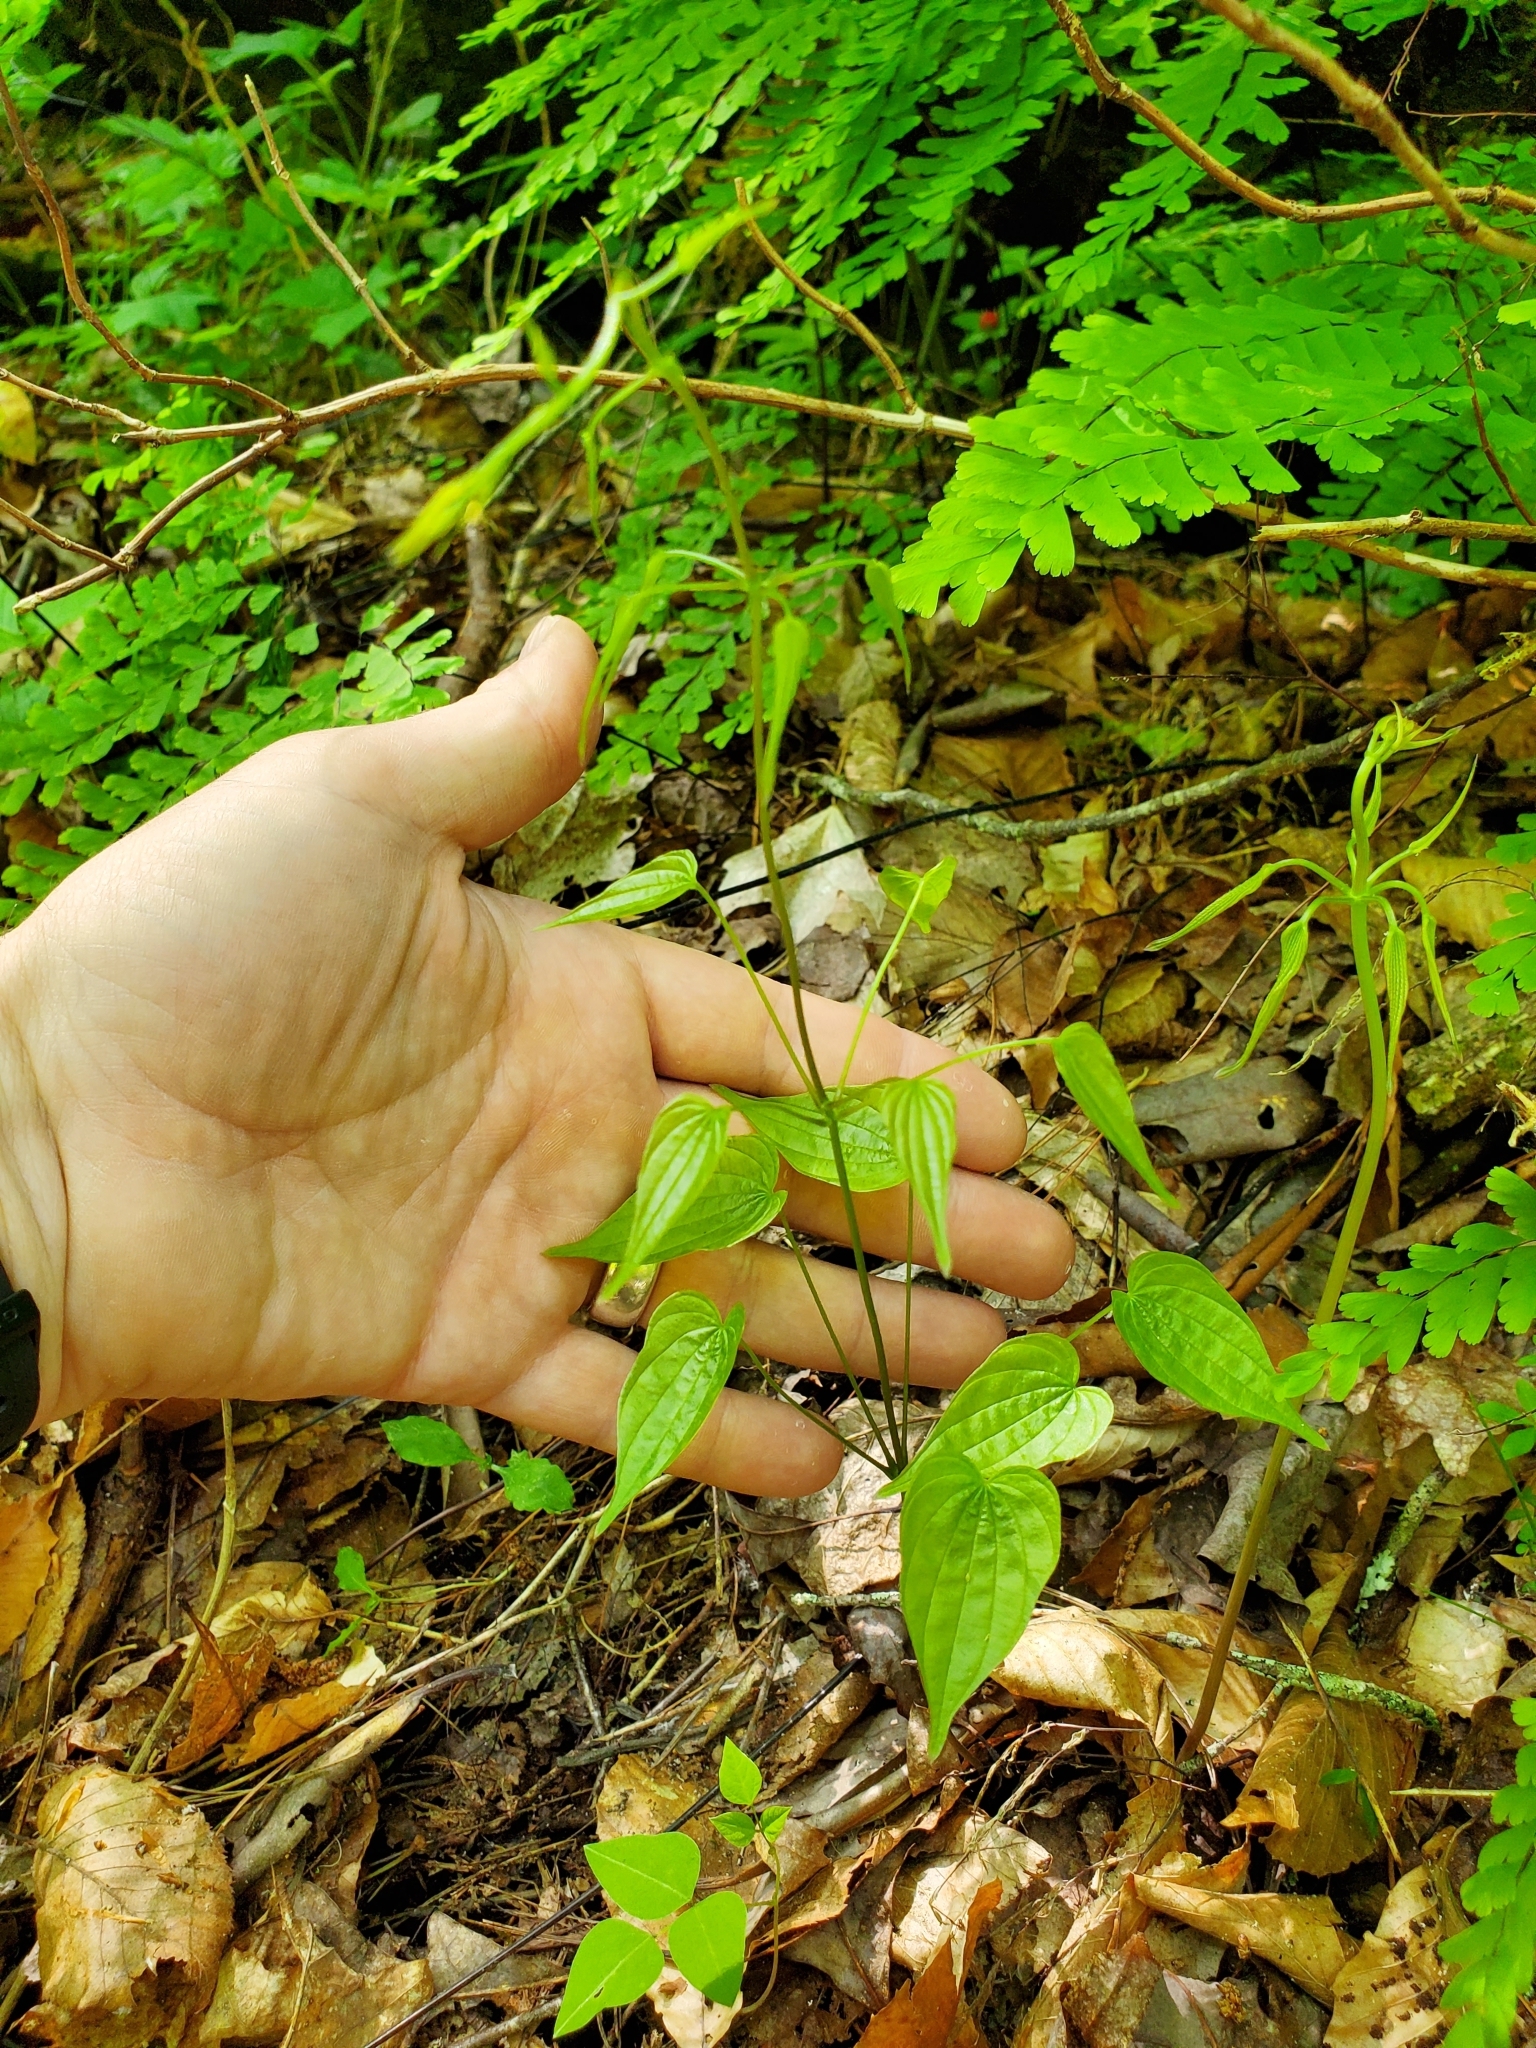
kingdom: Plantae
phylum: Tracheophyta
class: Liliopsida
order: Dioscoreales
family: Dioscoreaceae
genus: Dioscorea
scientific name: Dioscorea villosa
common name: Wild yam
